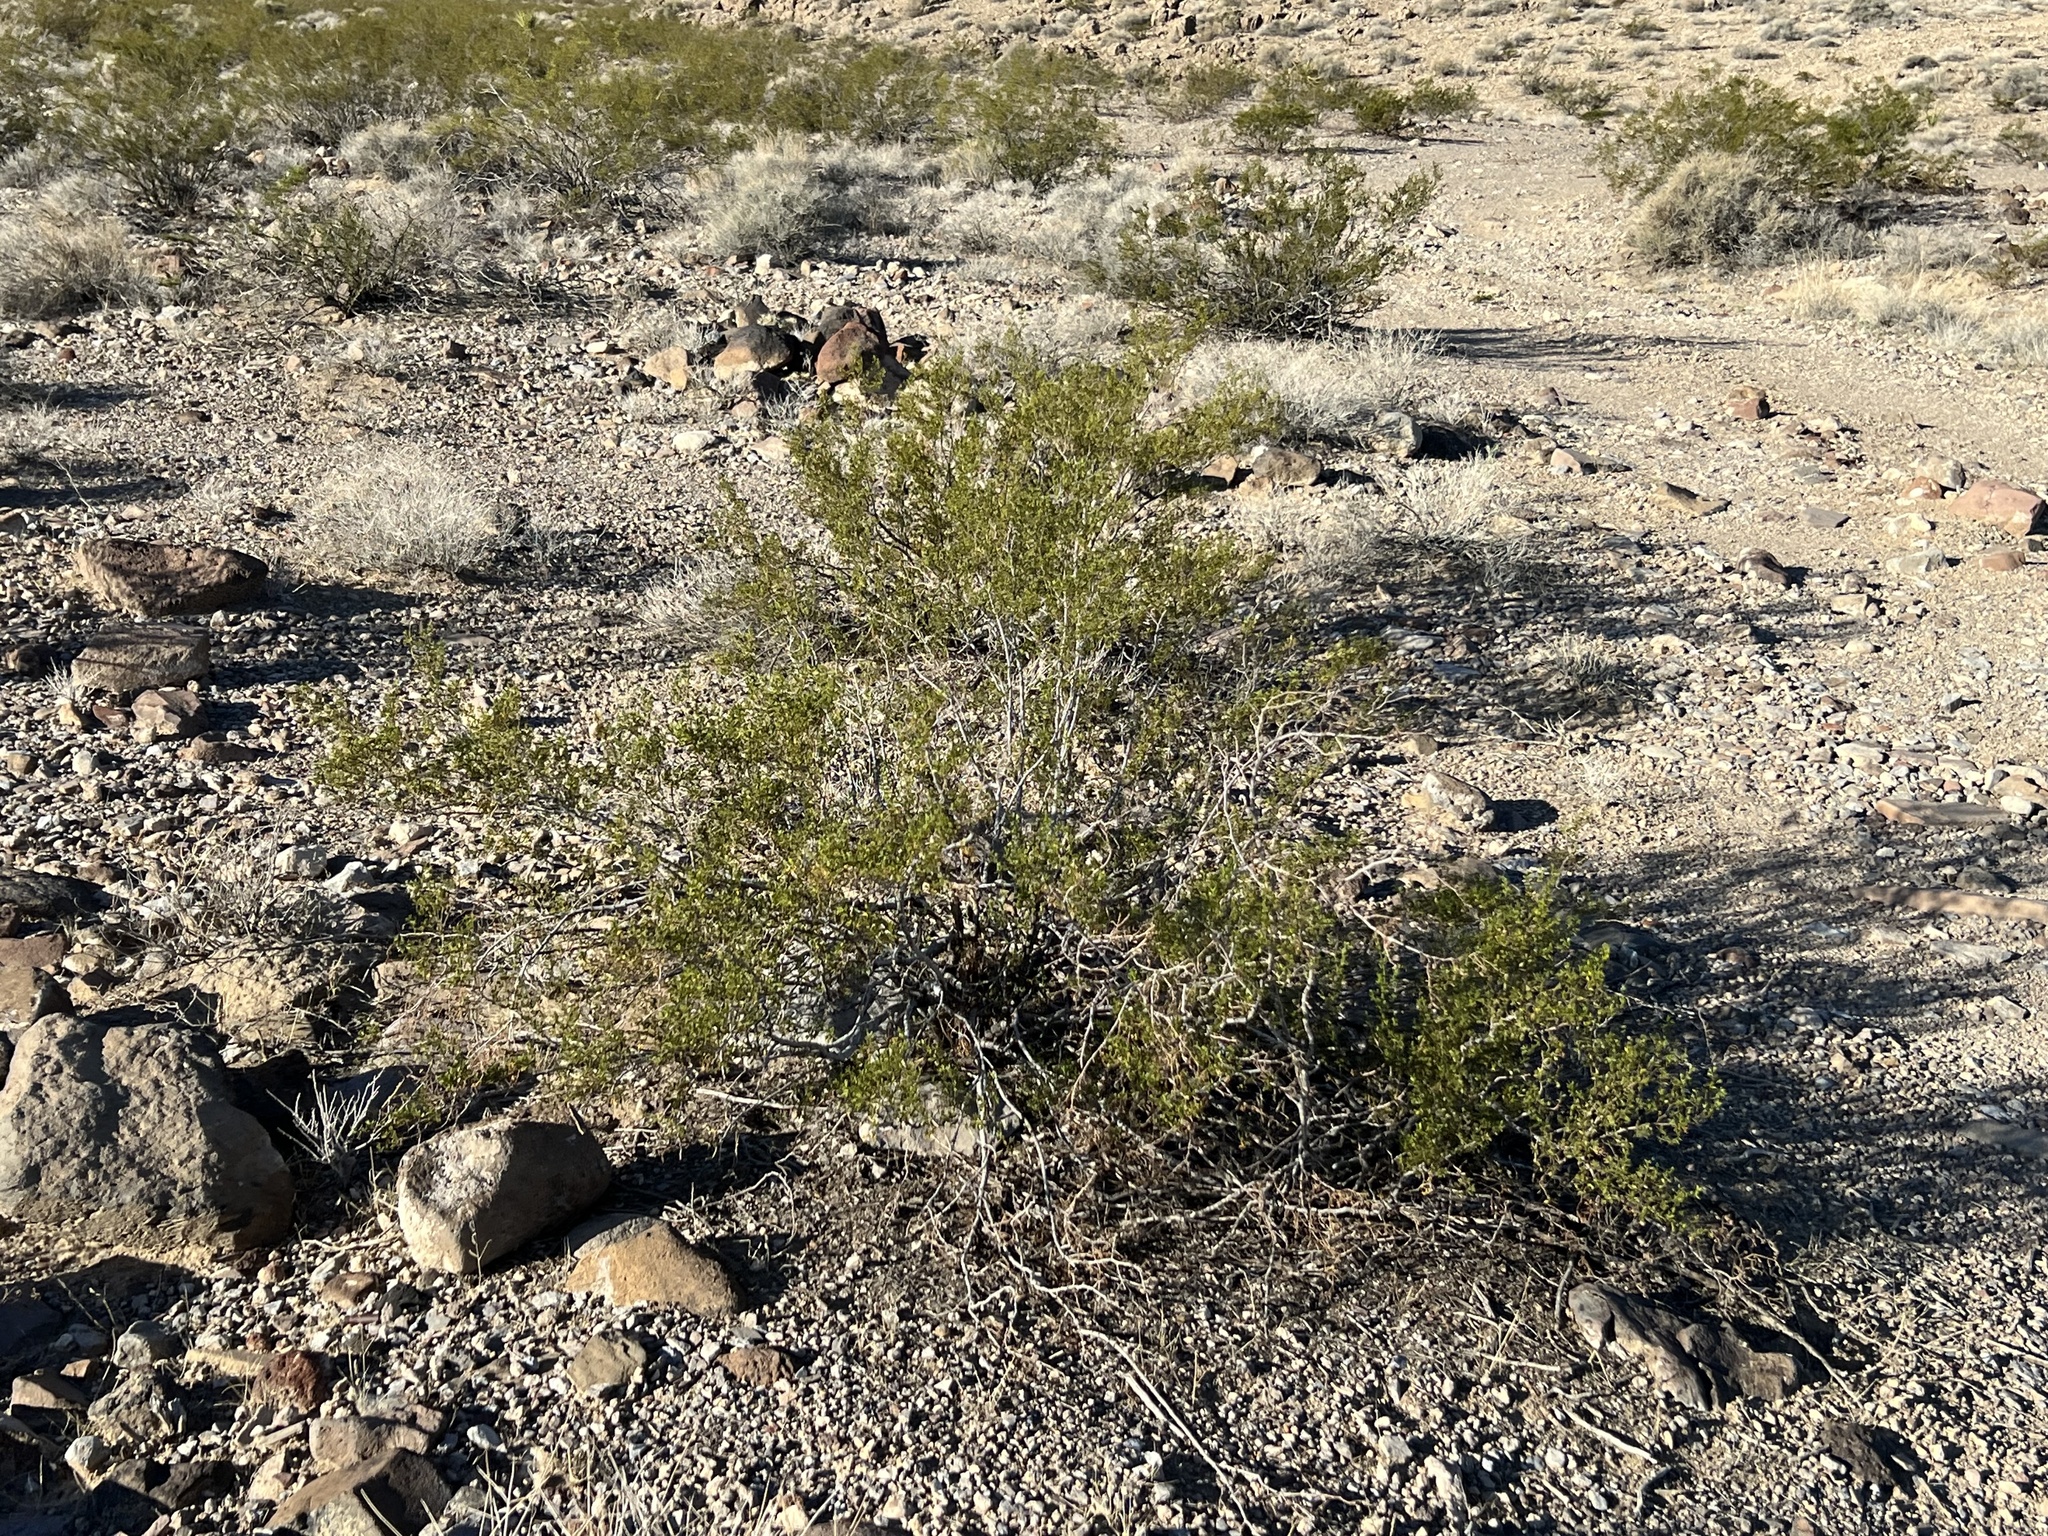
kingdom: Plantae
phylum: Tracheophyta
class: Magnoliopsida
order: Zygophyllales
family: Zygophyllaceae
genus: Larrea
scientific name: Larrea tridentata
